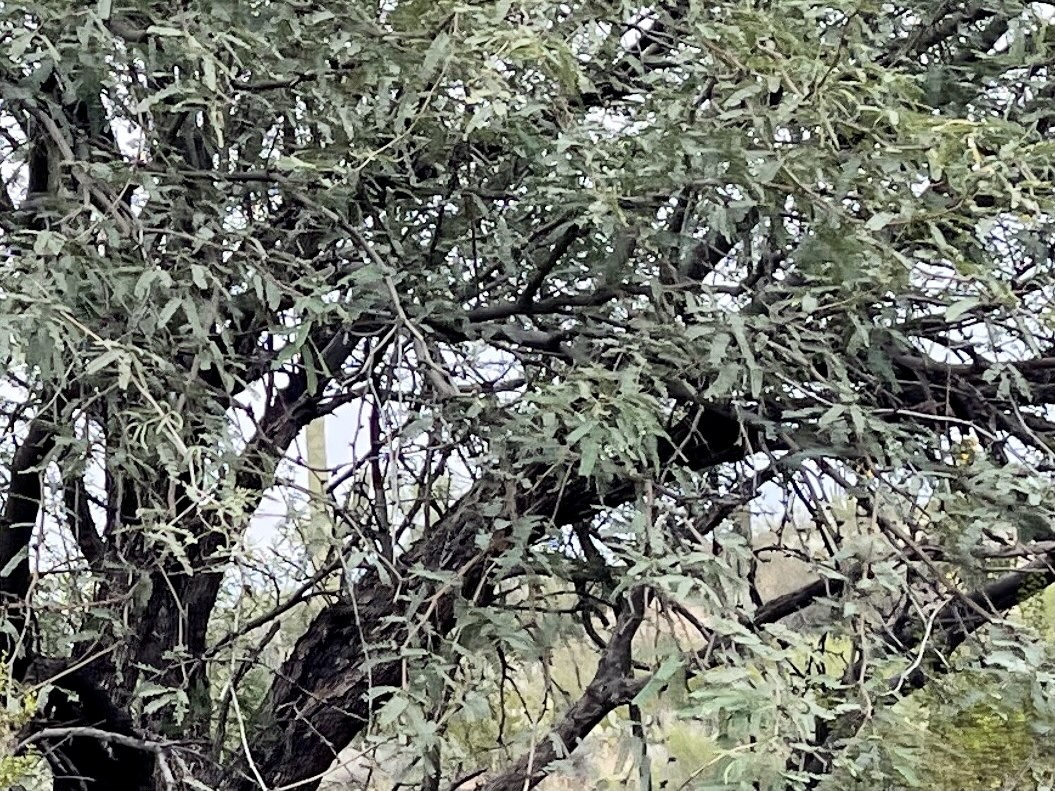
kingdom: Plantae
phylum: Tracheophyta
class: Magnoliopsida
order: Fabales
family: Fabaceae
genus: Prosopis
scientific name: Prosopis velutina
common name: Velvet mesquite
